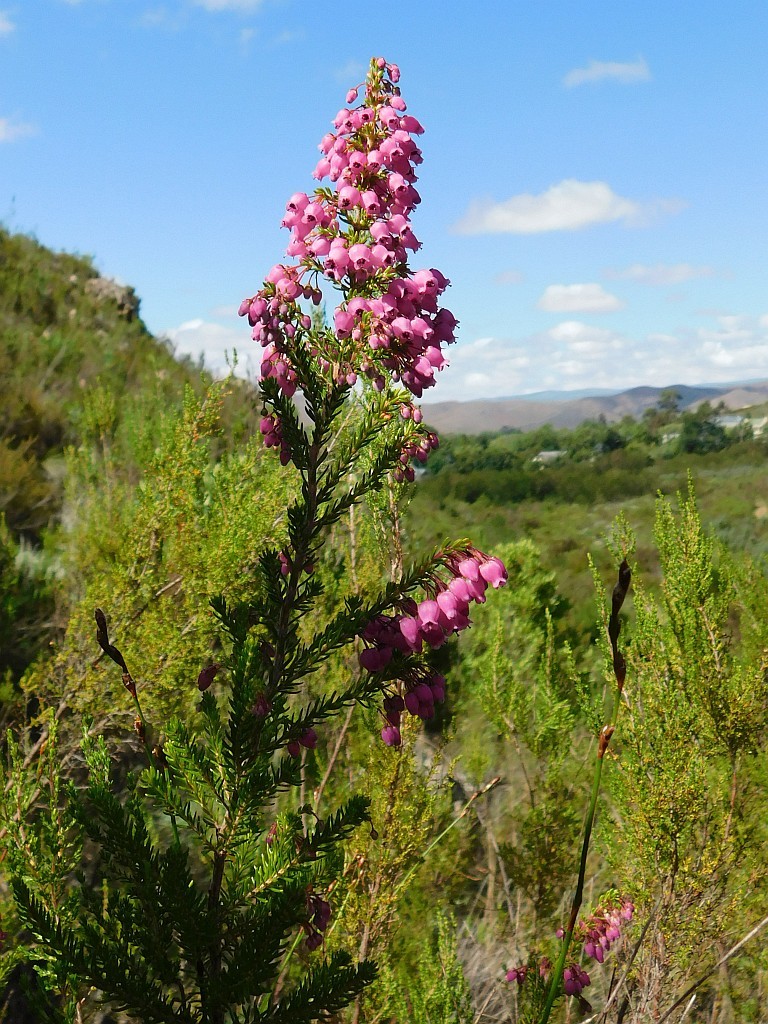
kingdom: Plantae
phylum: Tracheophyta
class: Magnoliopsida
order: Ericales
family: Ericaceae
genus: Erica
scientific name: Erica lateralis
